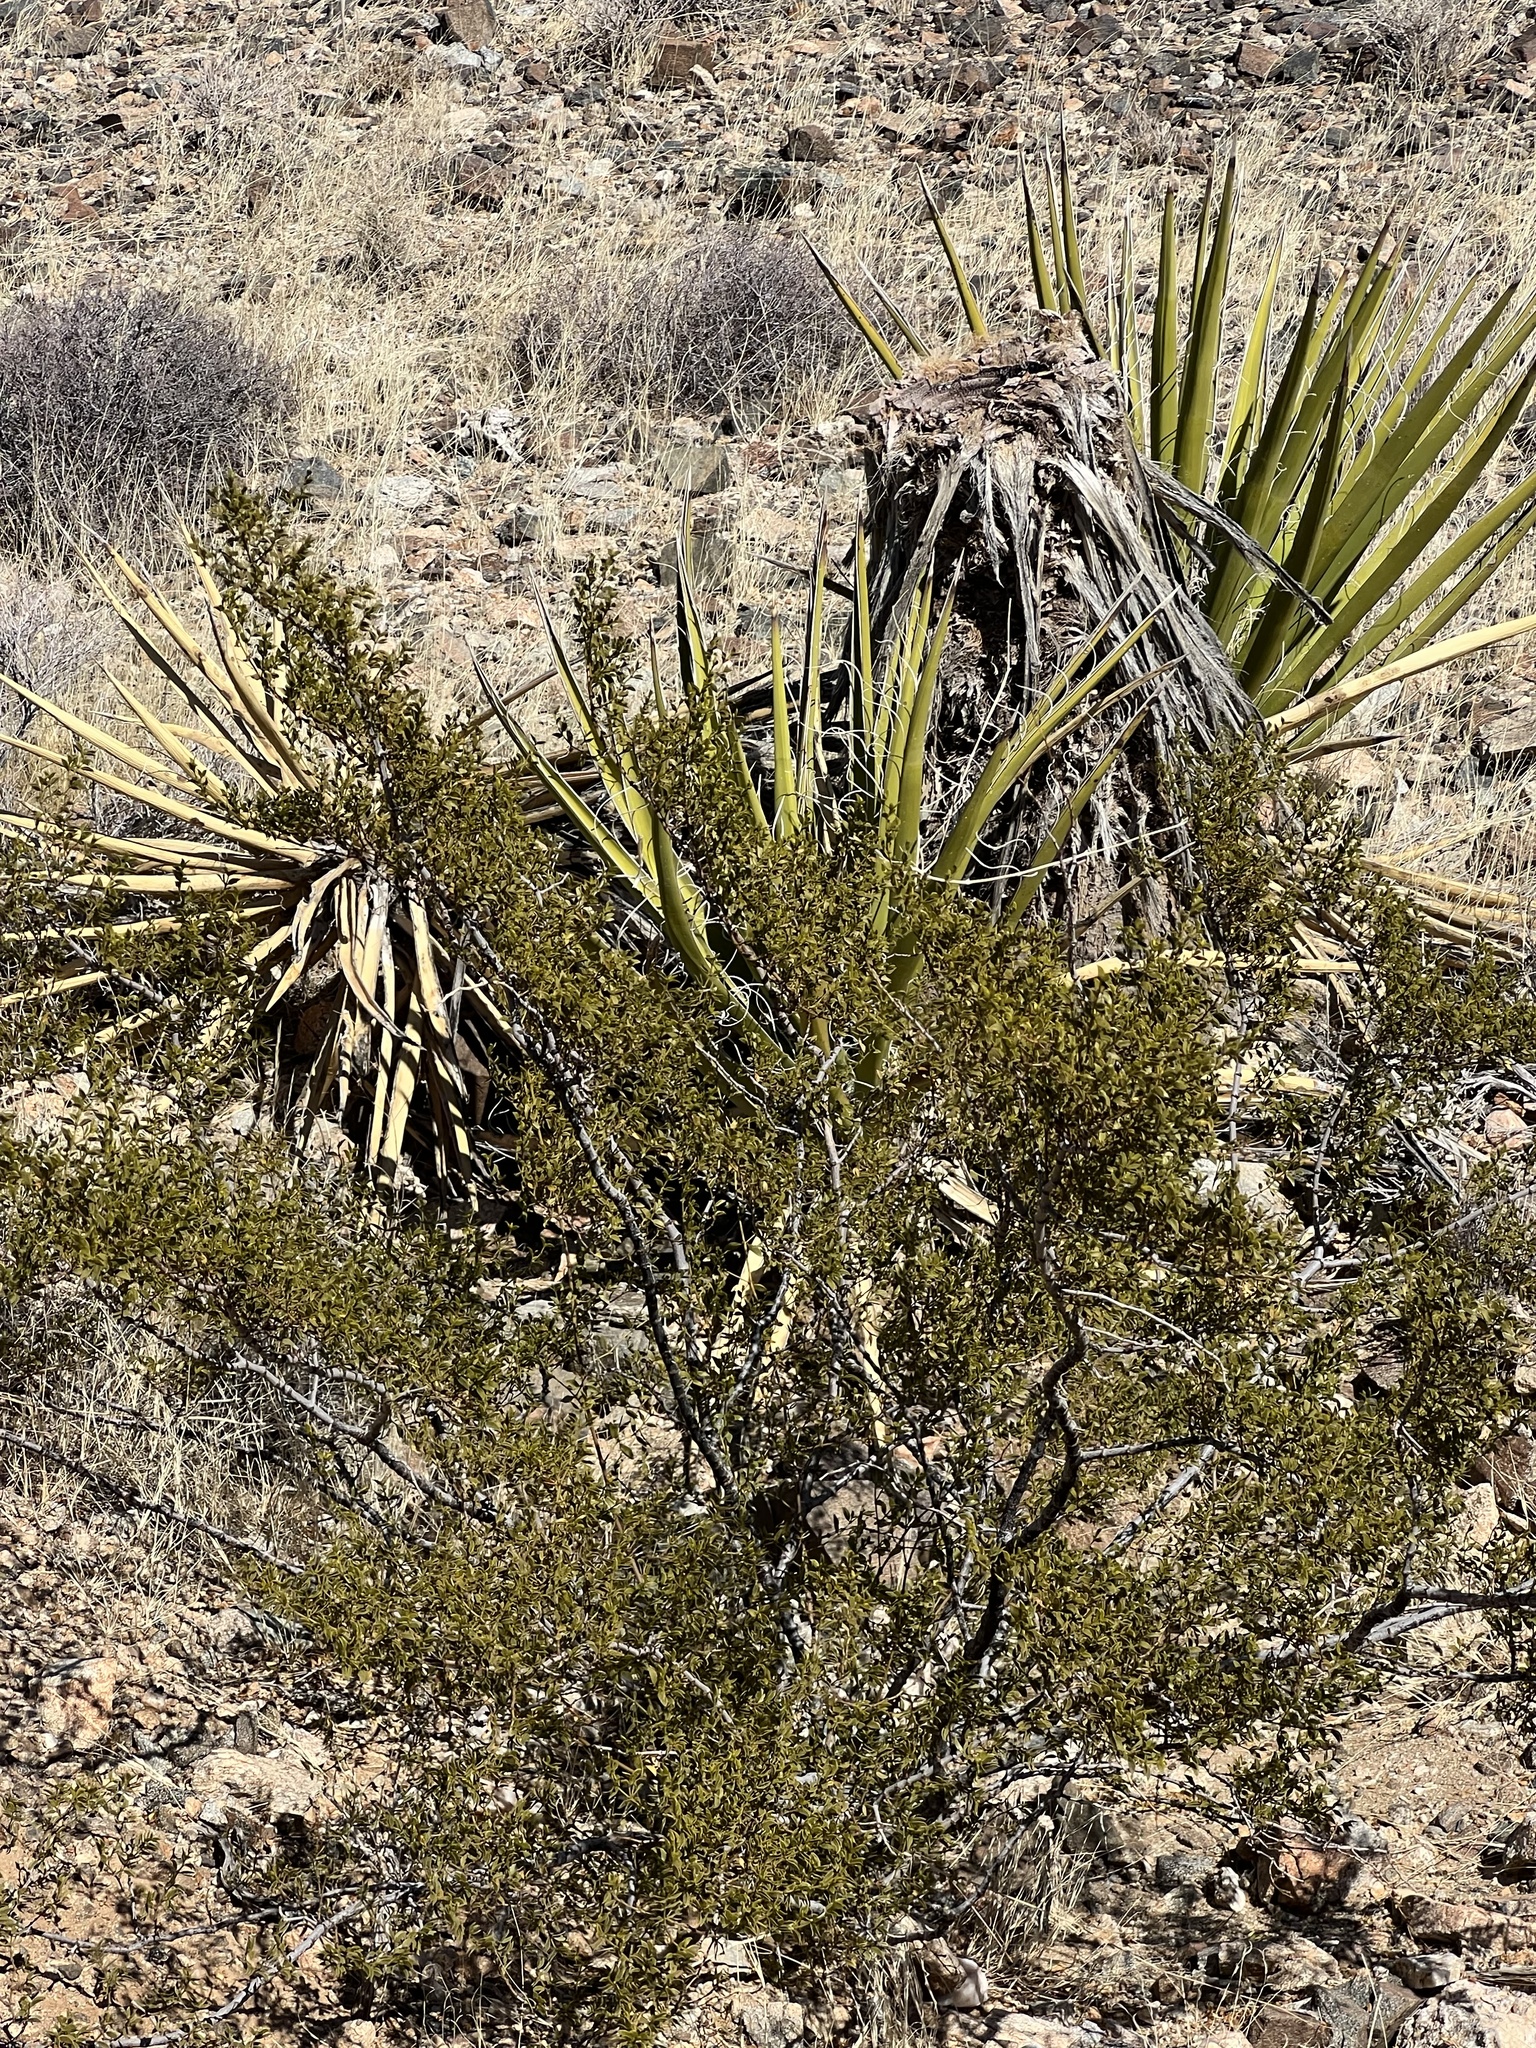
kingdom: Plantae
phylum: Tracheophyta
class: Magnoliopsida
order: Zygophyllales
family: Zygophyllaceae
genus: Larrea
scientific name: Larrea tridentata
